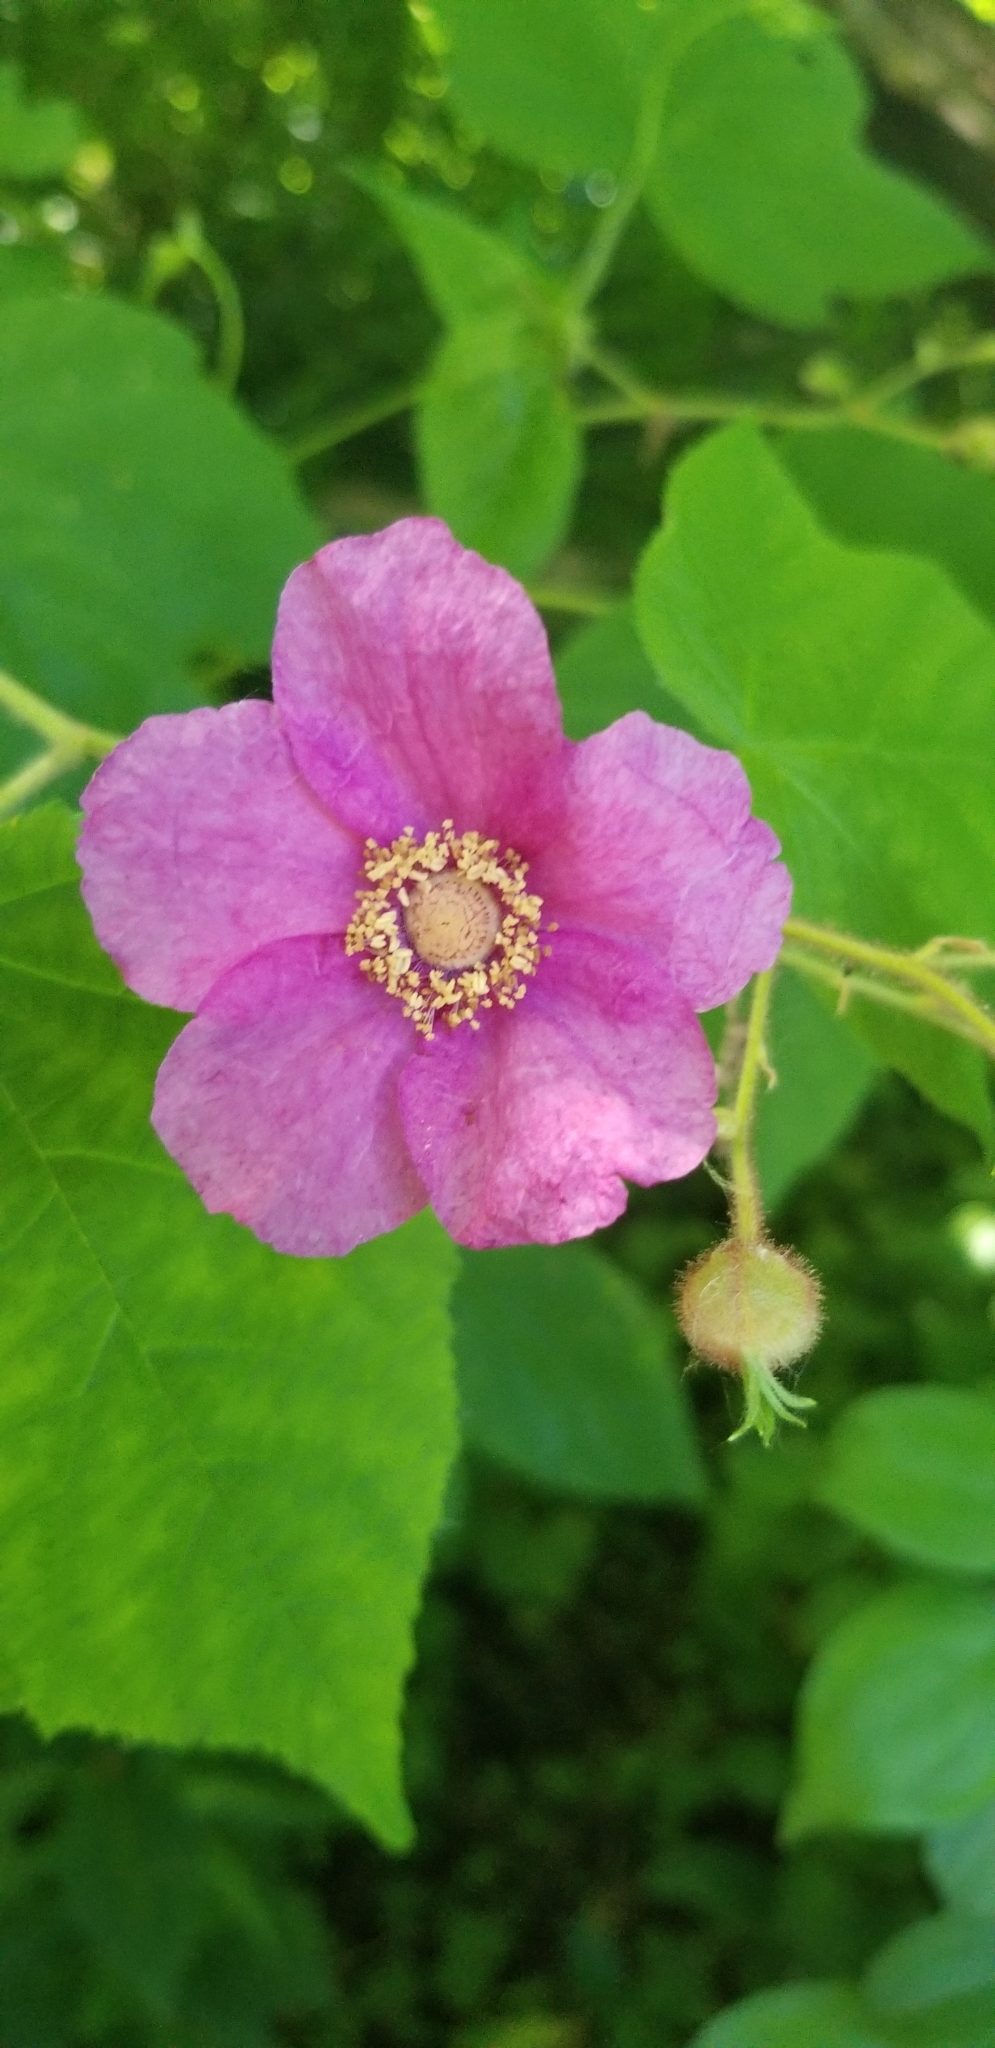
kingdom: Plantae
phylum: Tracheophyta
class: Magnoliopsida
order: Rosales
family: Rosaceae
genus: Rubus
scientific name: Rubus odoratus
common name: Purple-flowered raspberry
